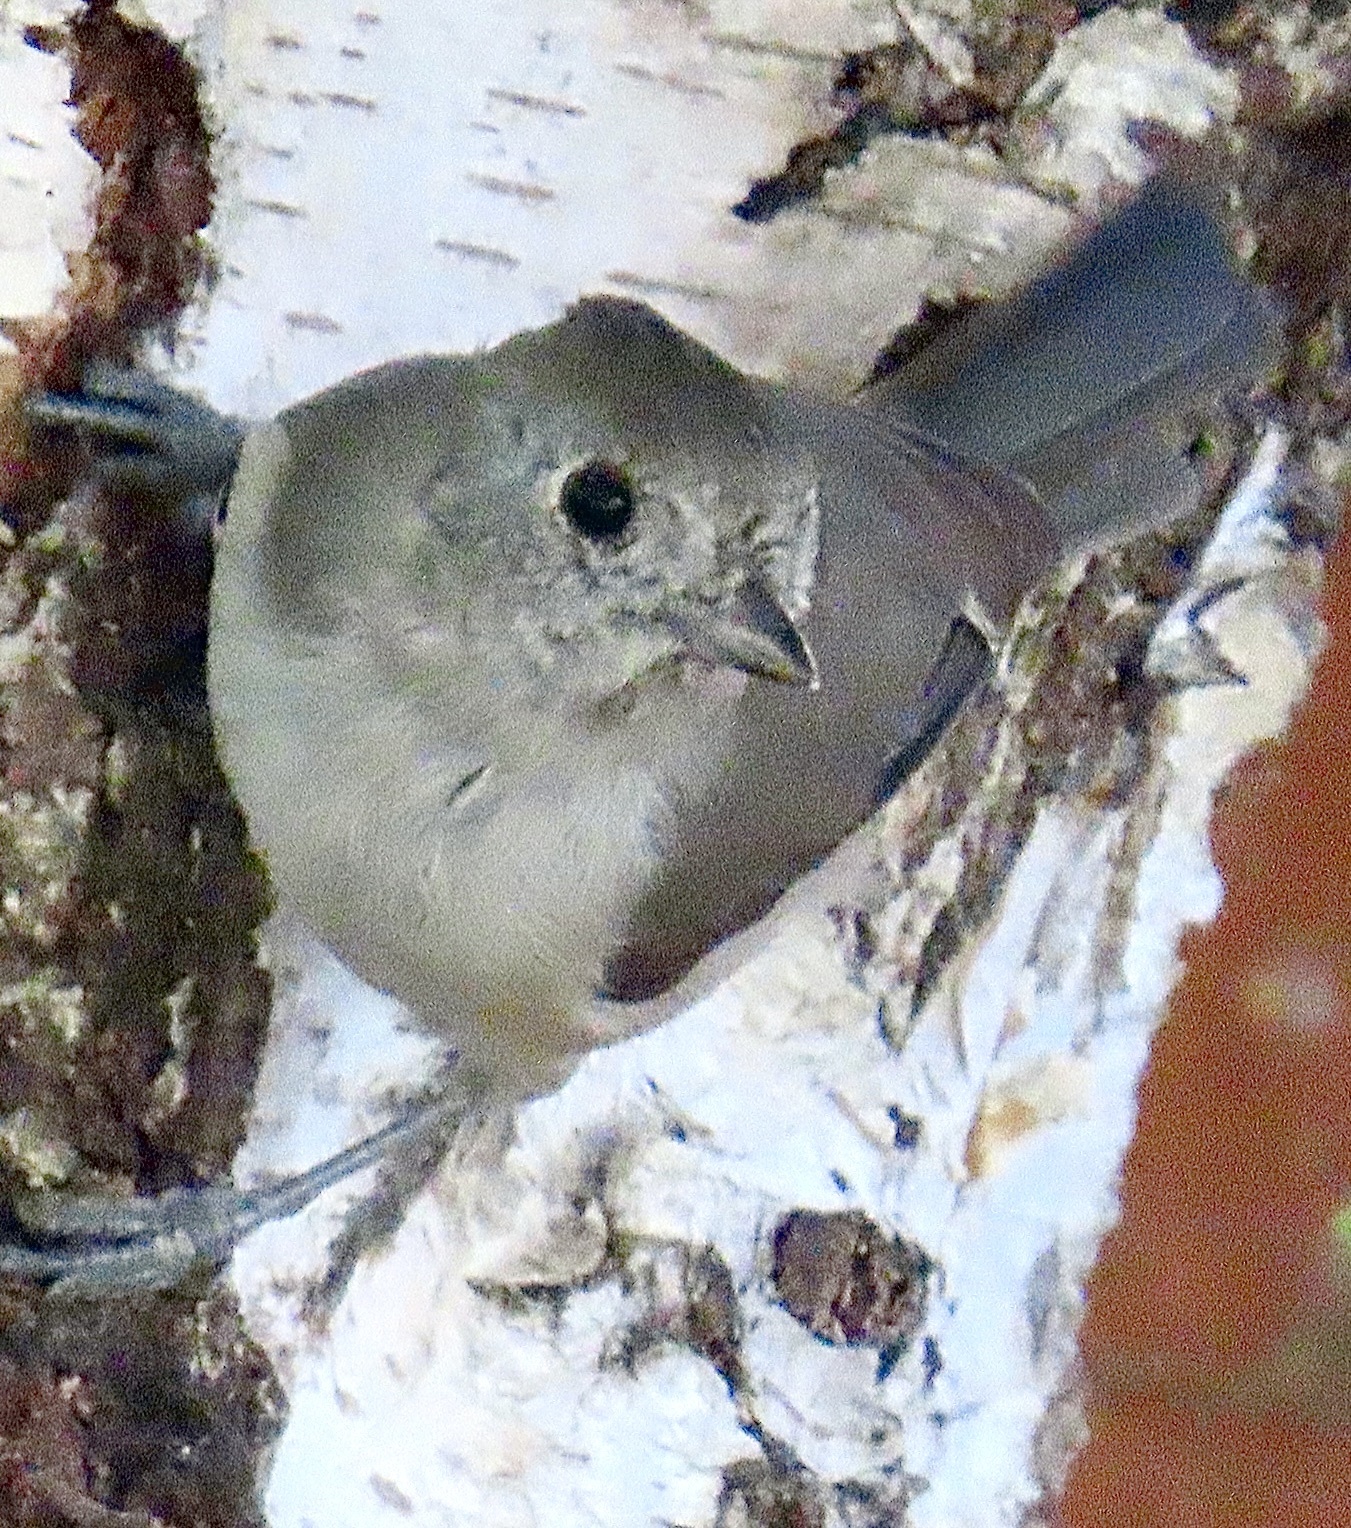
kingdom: Animalia
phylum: Chordata
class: Aves
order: Passeriformes
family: Paridae
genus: Baeolophus
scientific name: Baeolophus inornatus
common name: Oak titmouse
